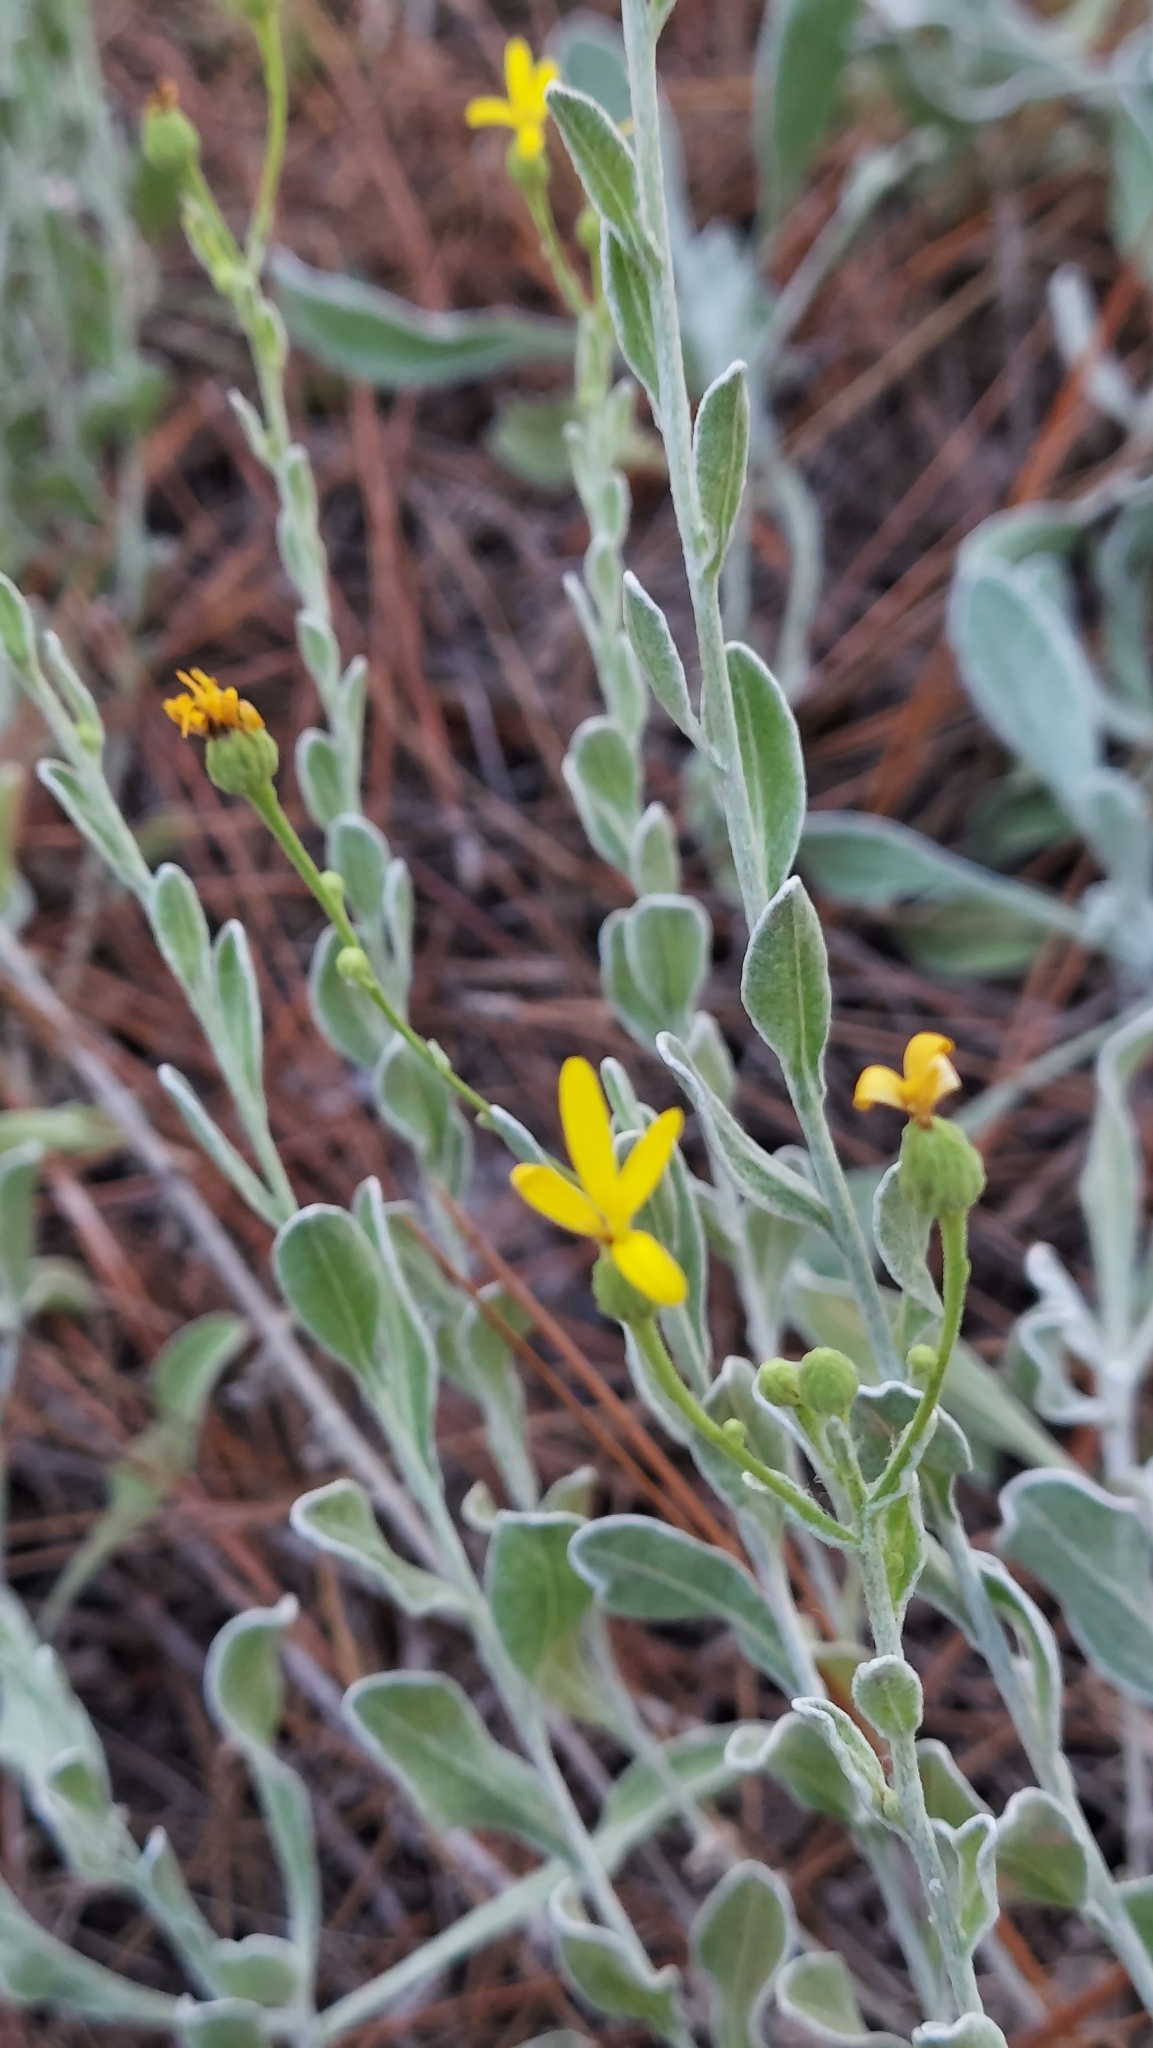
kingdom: Plantae
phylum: Tracheophyta
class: Magnoliopsida
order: Asterales
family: Asteraceae
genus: Chrysopsis
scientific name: Chrysopsis floridana
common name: Florida golden-aster
